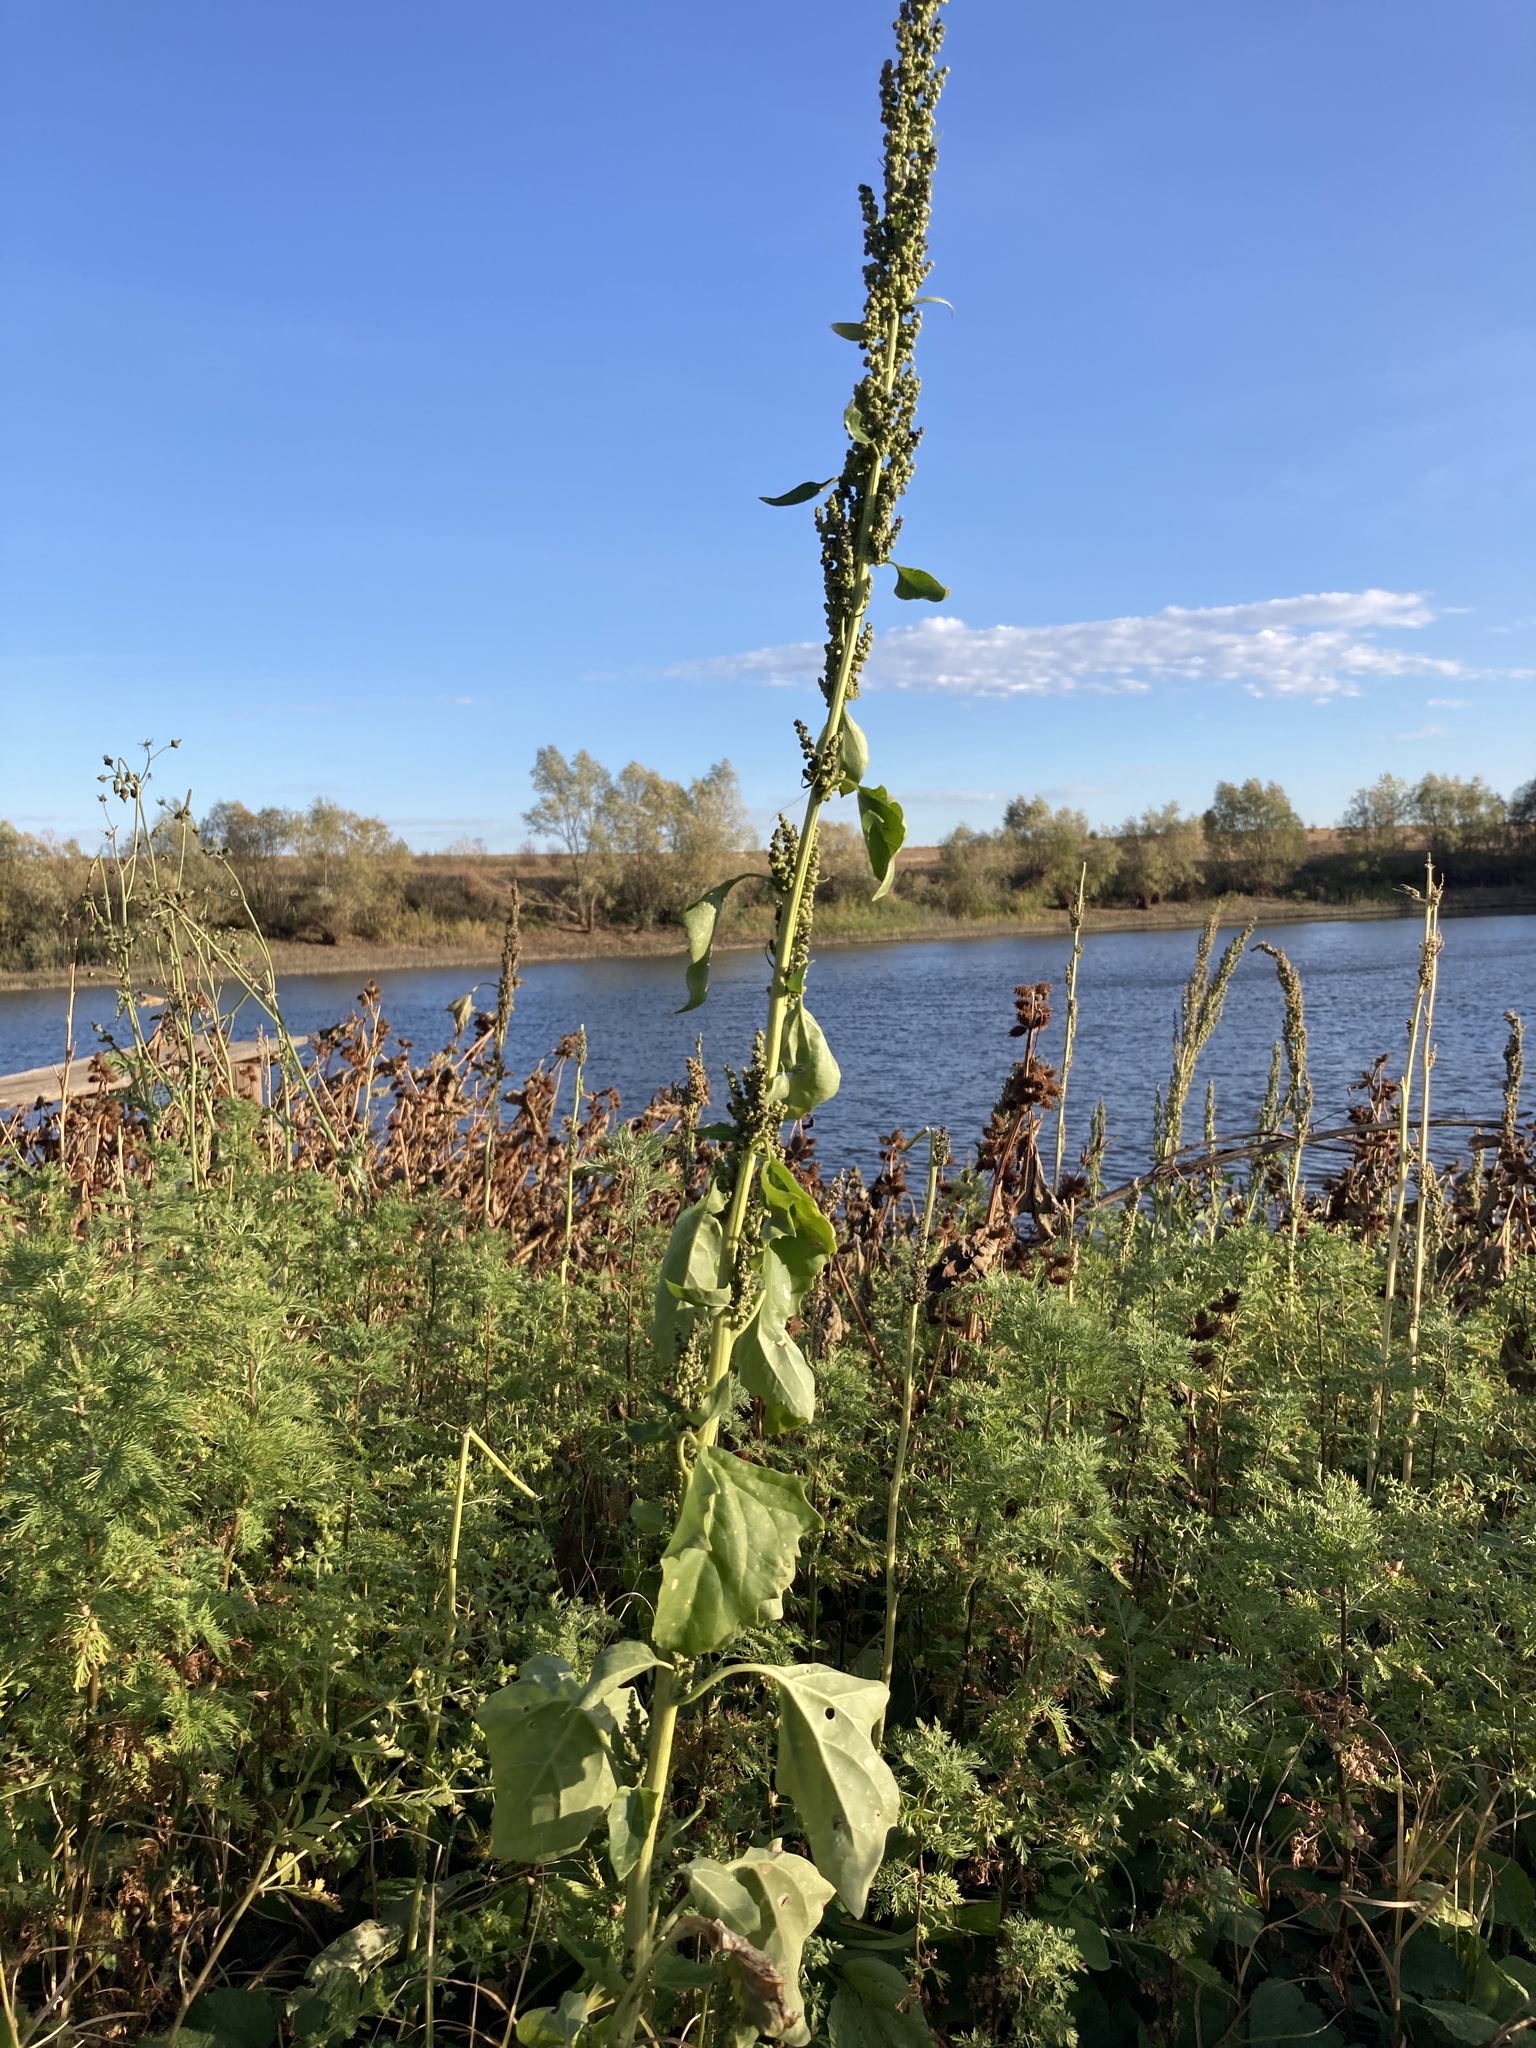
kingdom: Plantae
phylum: Tracheophyta
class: Magnoliopsida
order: Caryophyllales
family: Amaranthaceae
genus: Oxybasis
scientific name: Oxybasis urbica
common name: City goosefoot
